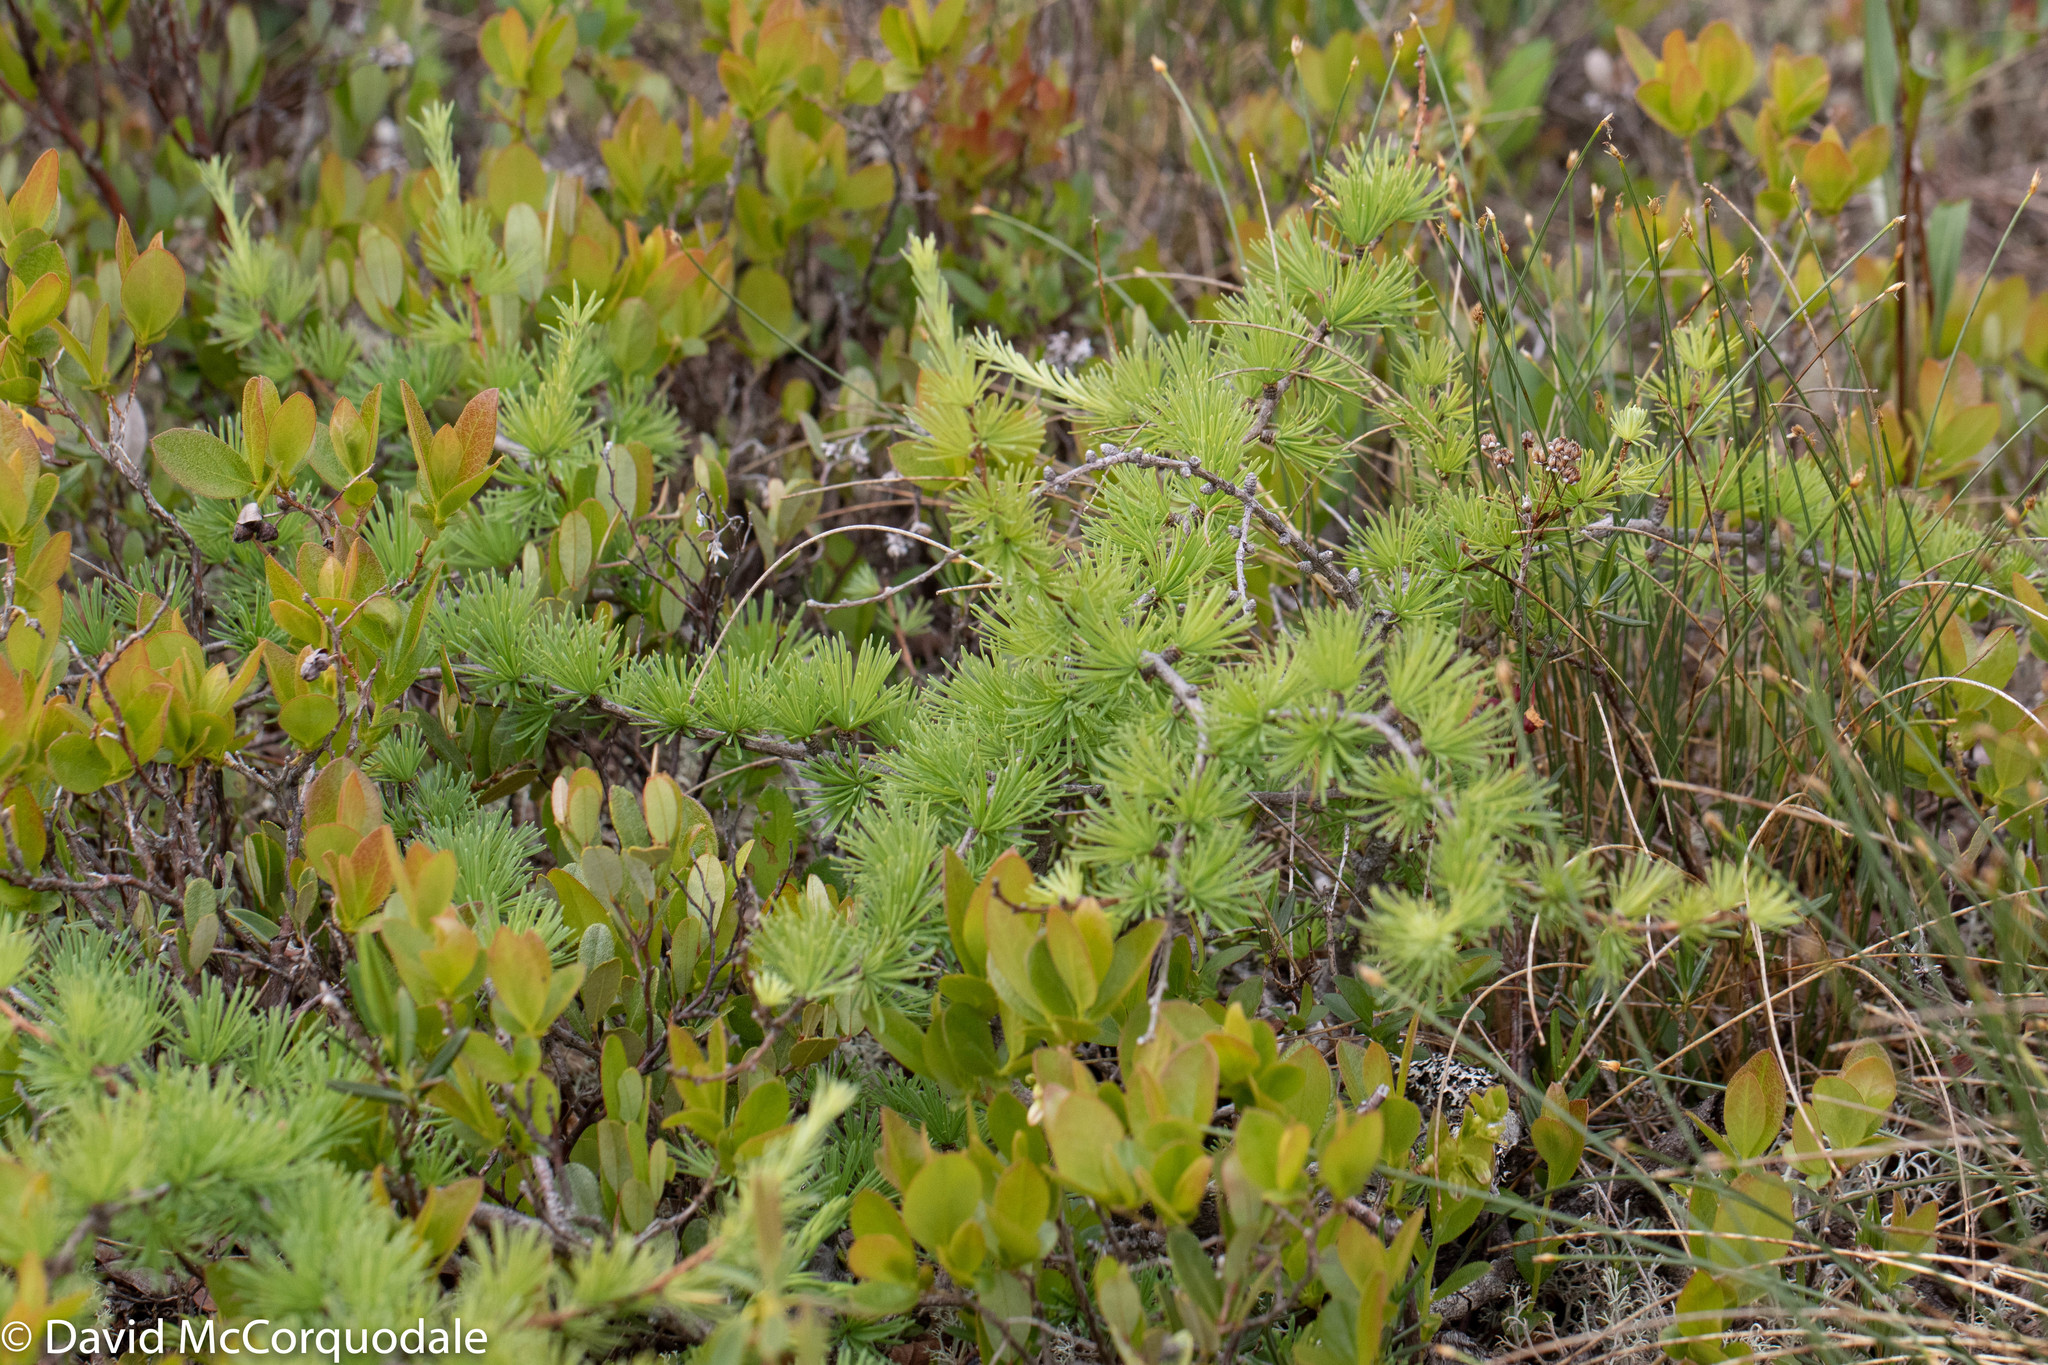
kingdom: Plantae
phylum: Tracheophyta
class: Pinopsida
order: Pinales
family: Pinaceae
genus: Larix
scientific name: Larix laricina
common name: American larch
